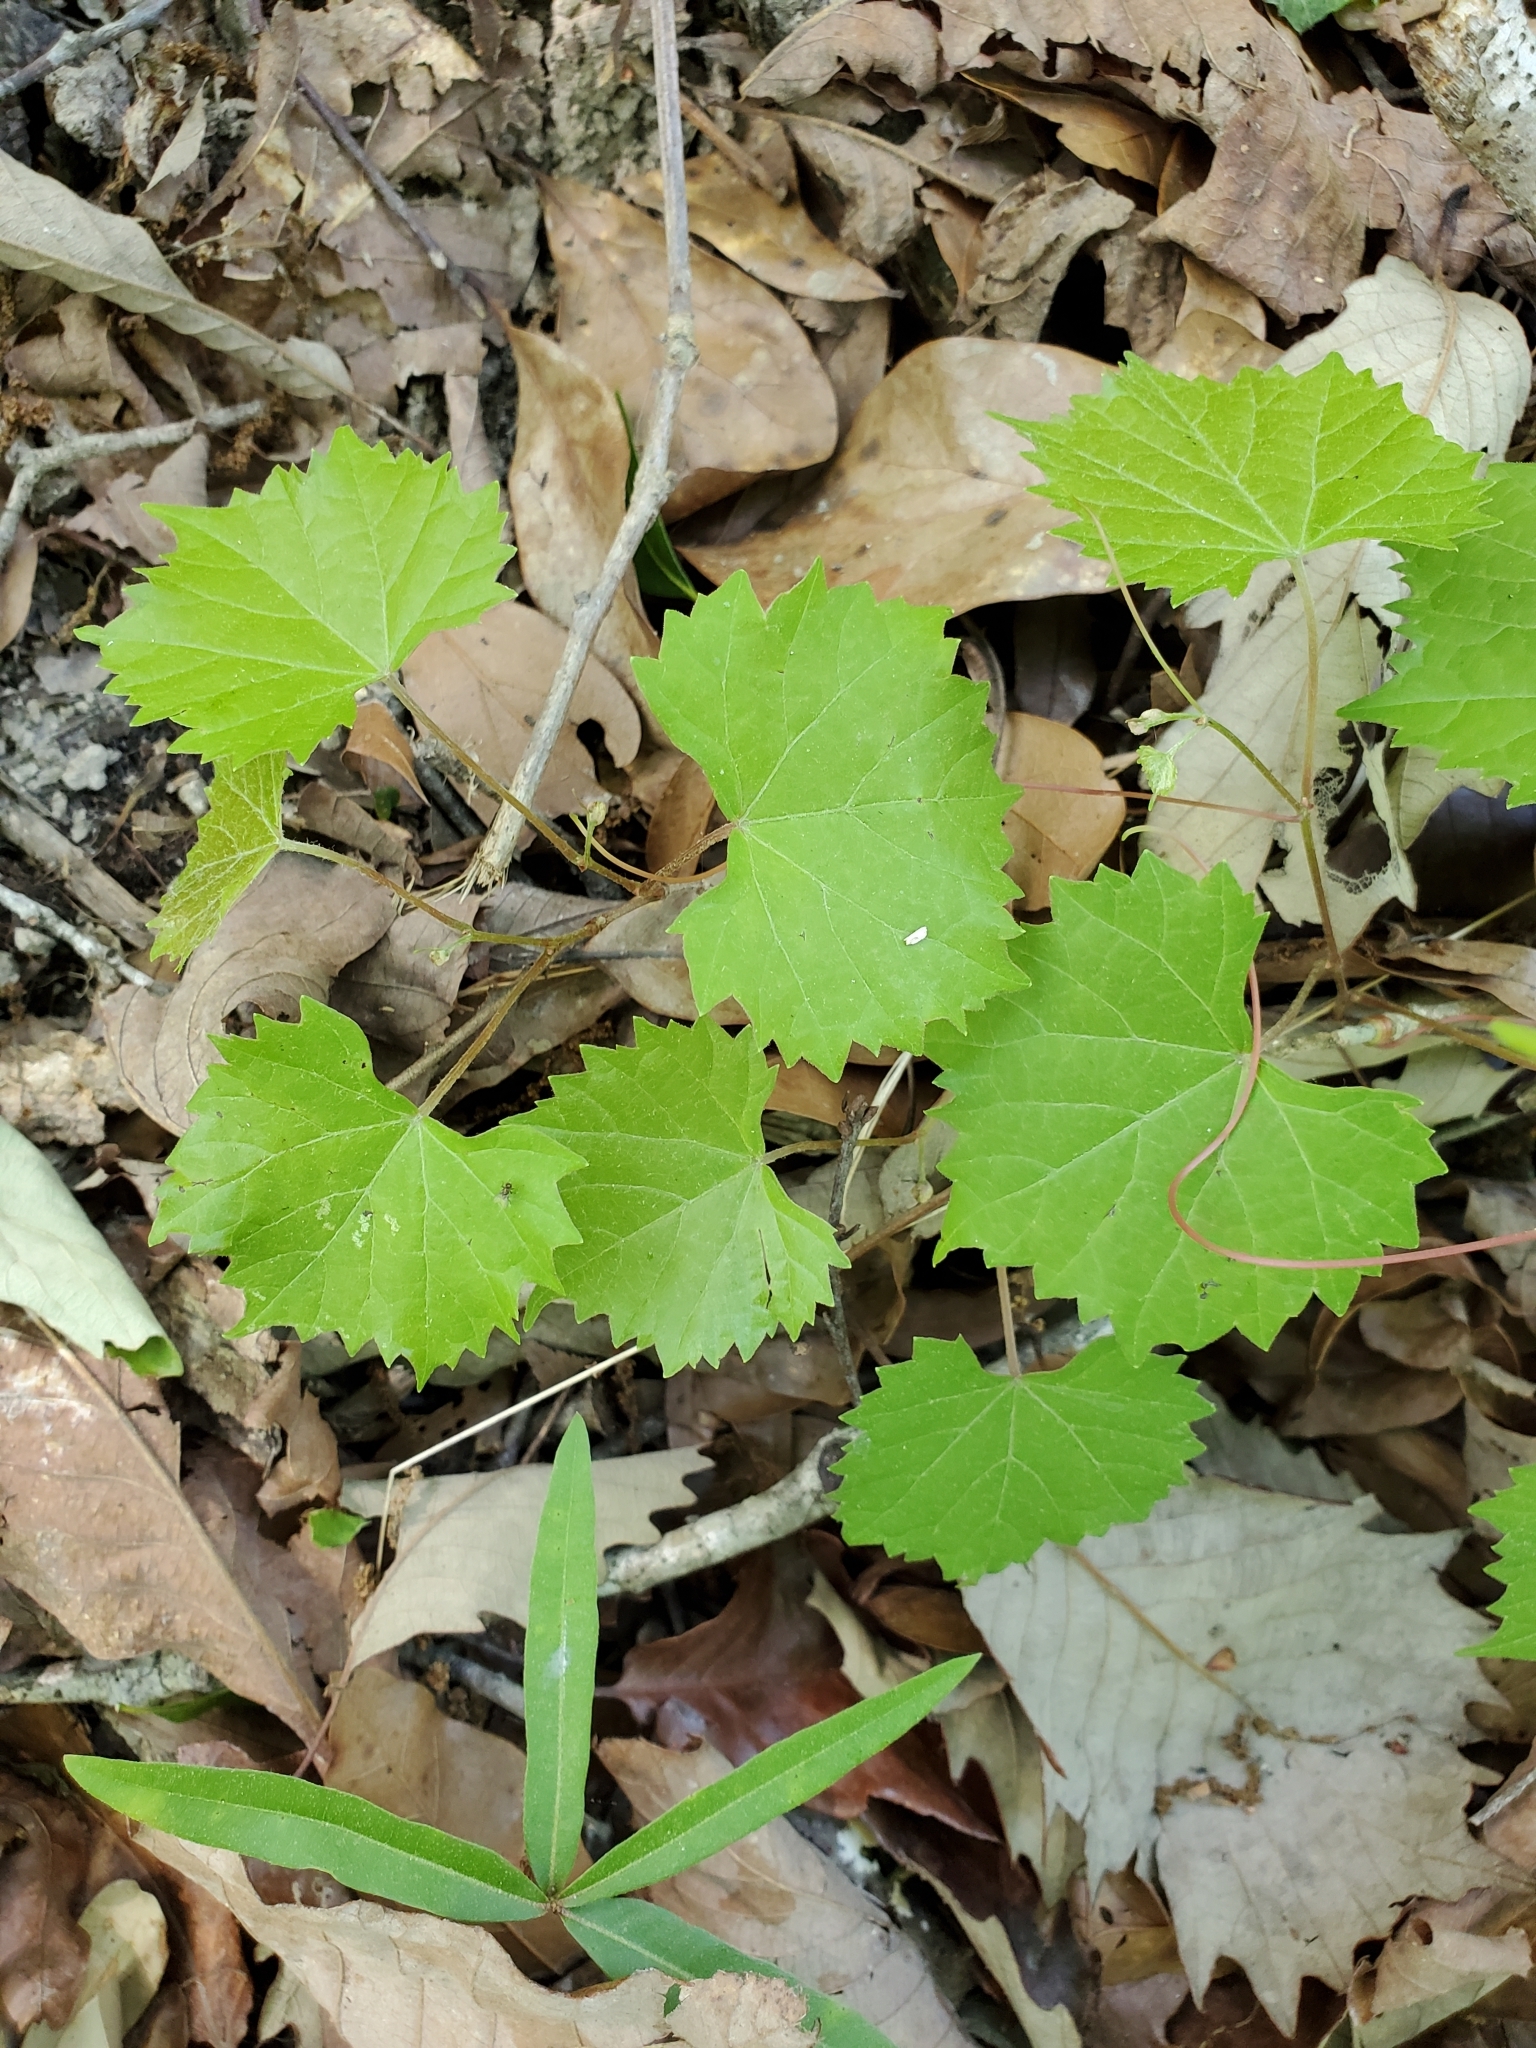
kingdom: Plantae
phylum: Tracheophyta
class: Magnoliopsida
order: Vitales
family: Vitaceae
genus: Vitis
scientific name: Vitis rotundifolia
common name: Muscadine grape
